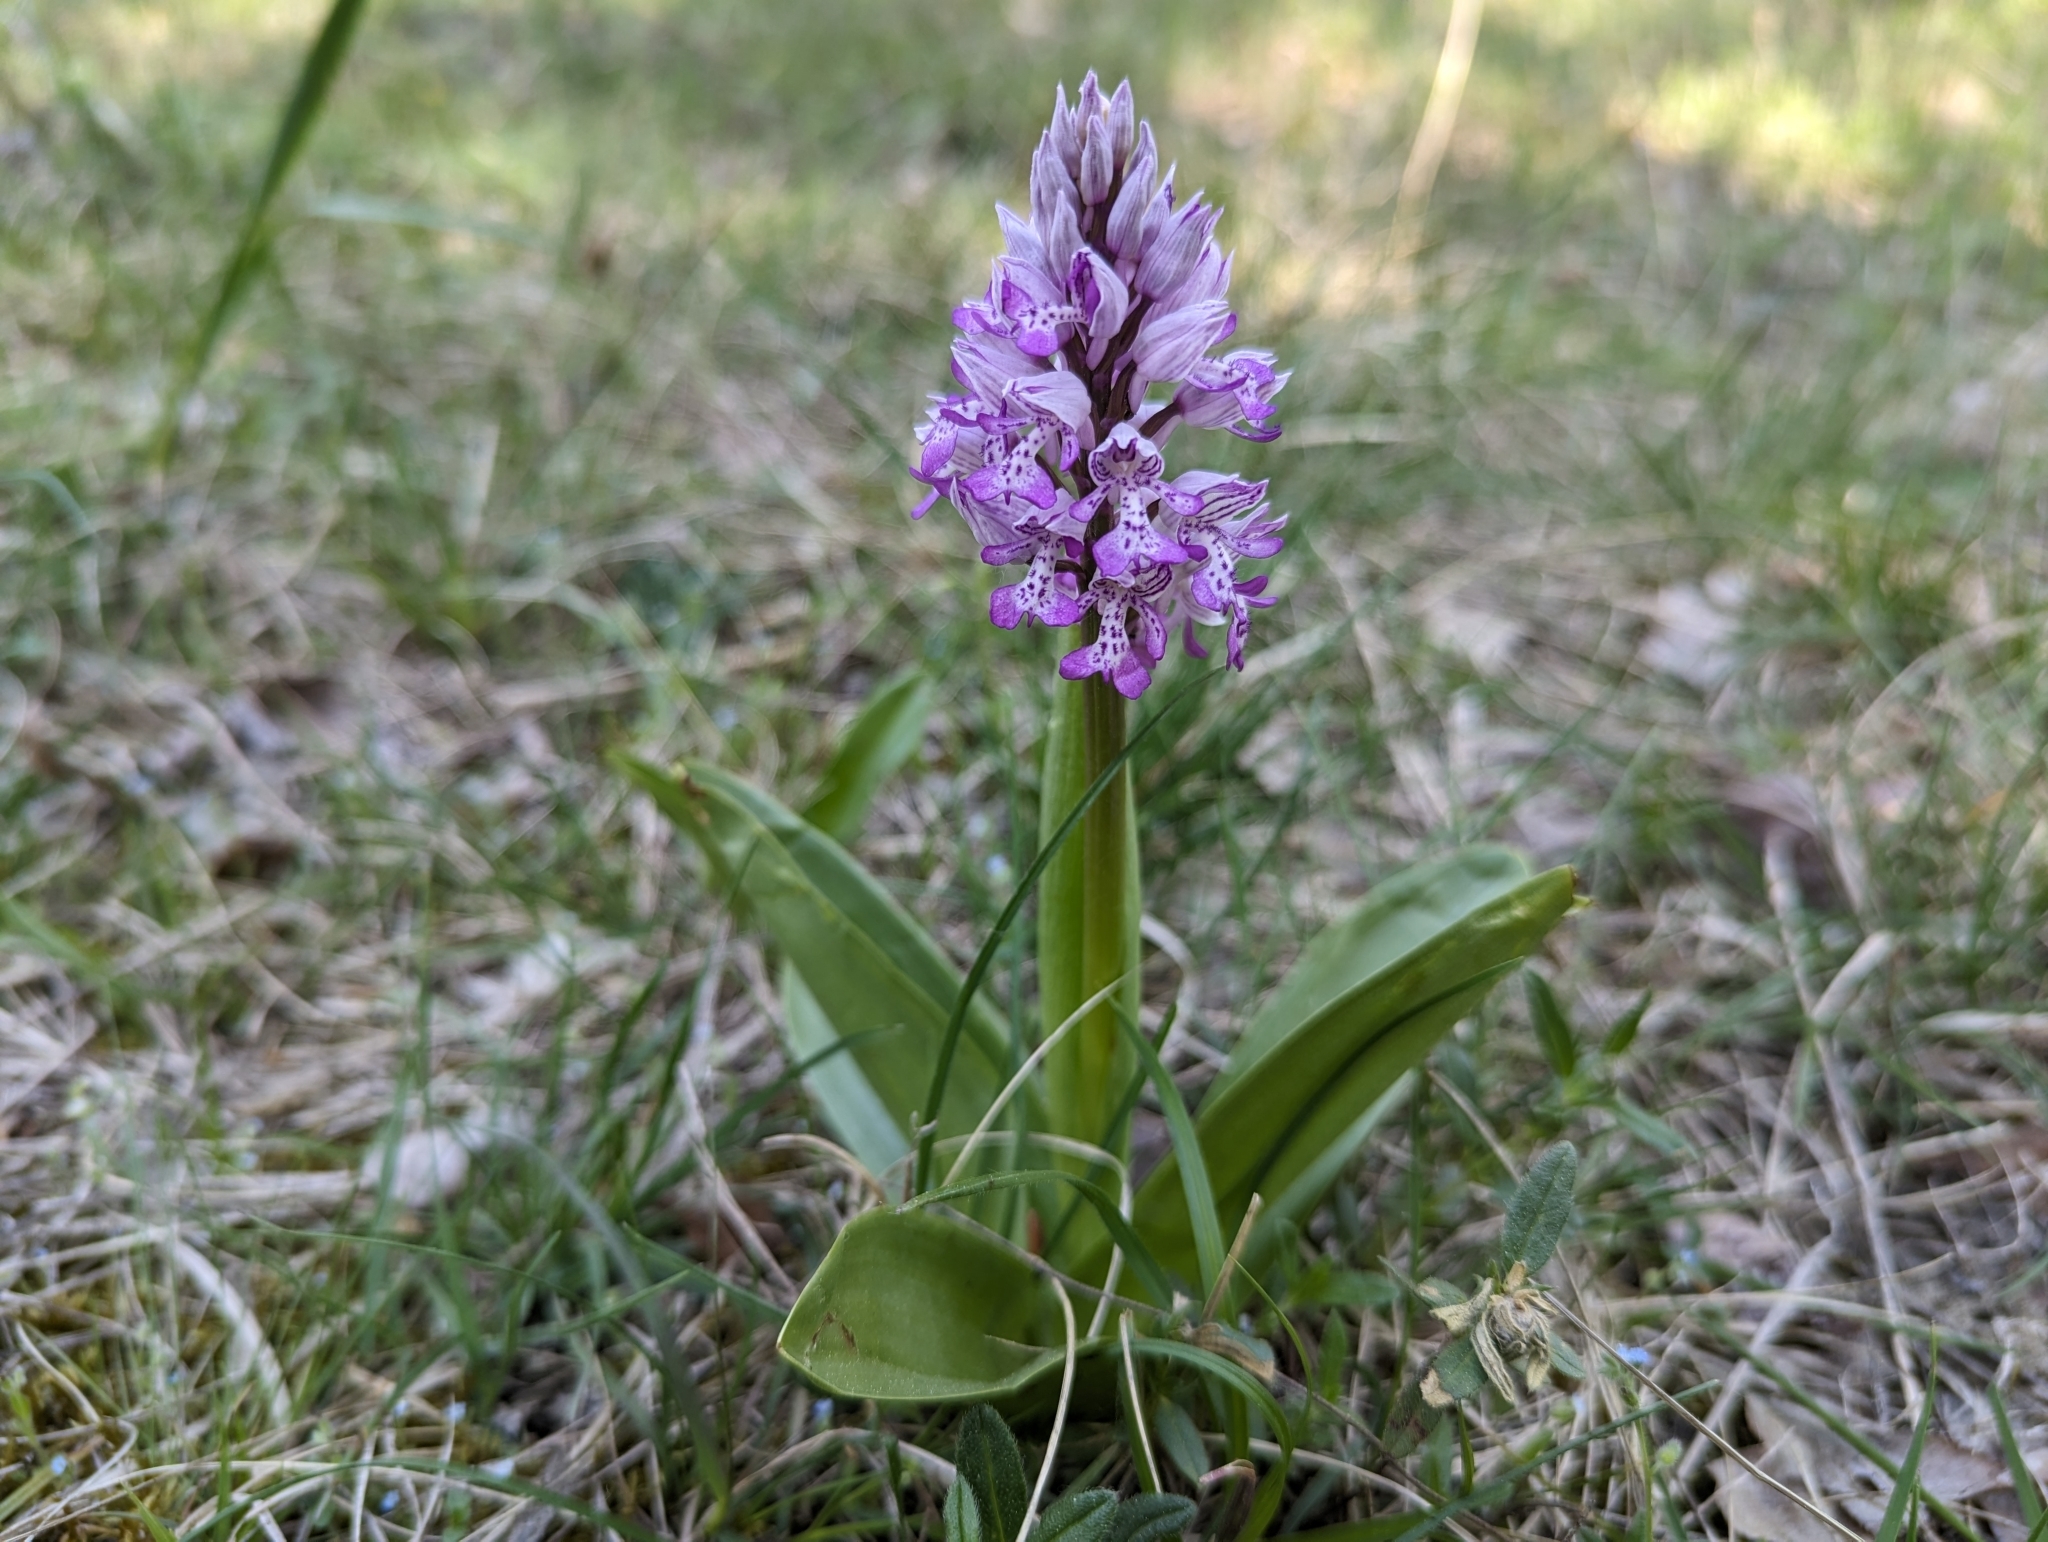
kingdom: Plantae
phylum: Tracheophyta
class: Liliopsida
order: Asparagales
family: Orchidaceae
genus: Orchis
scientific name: Orchis militaris
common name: Military orchid
